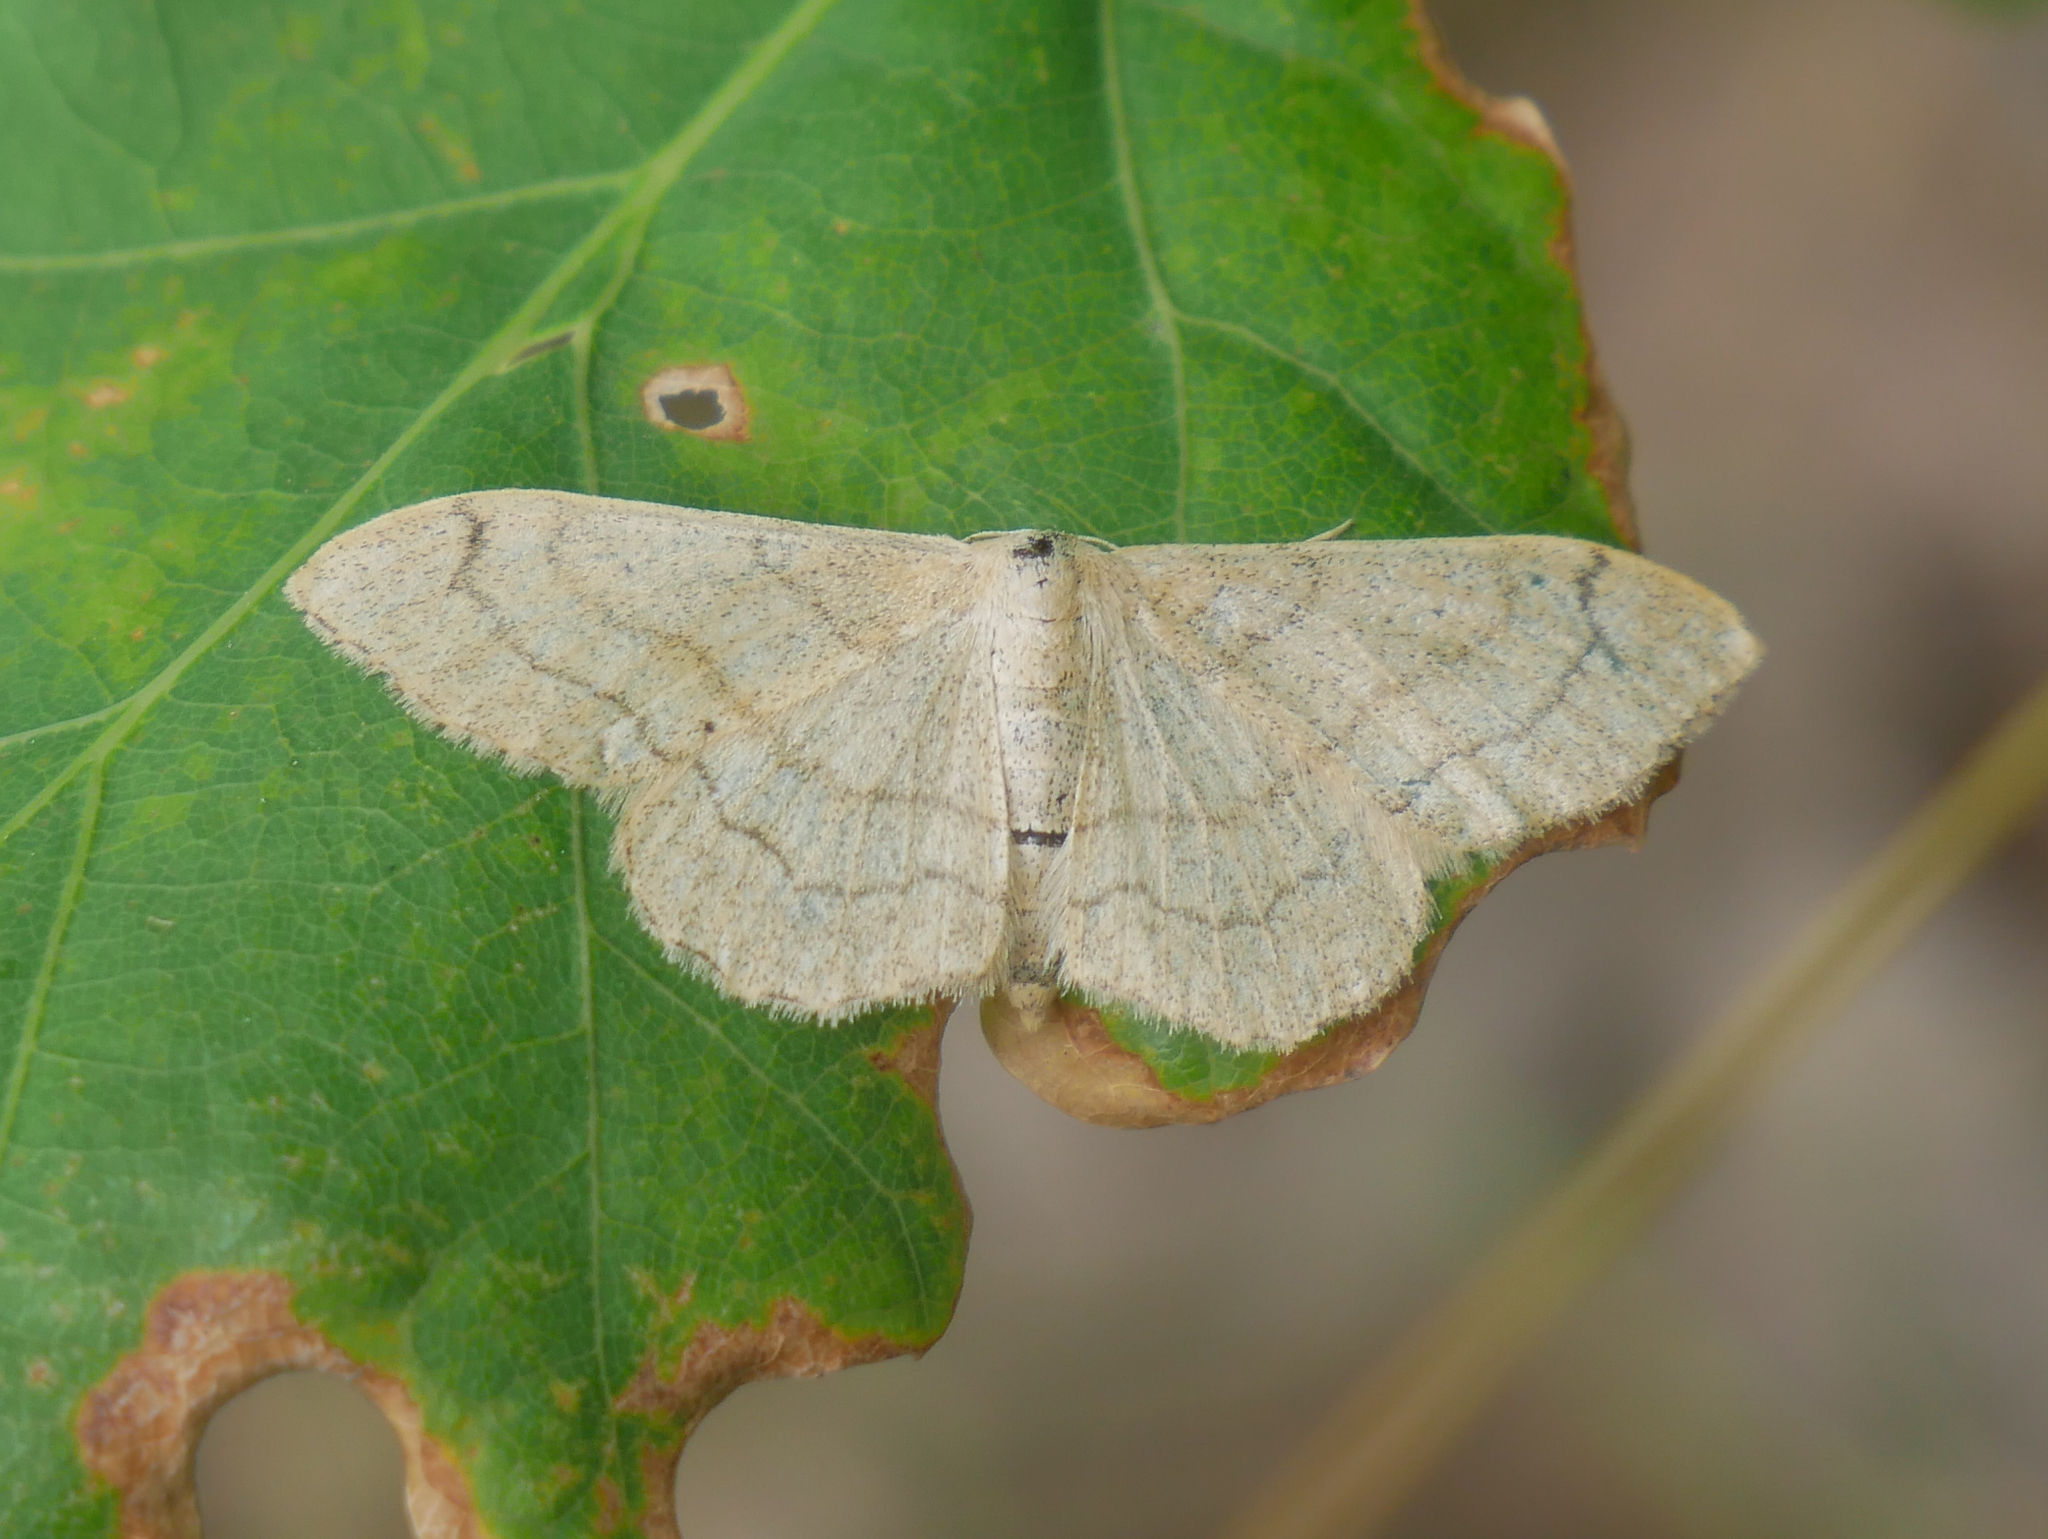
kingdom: Animalia
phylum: Arthropoda
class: Insecta
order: Lepidoptera
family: Geometridae
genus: Idaea
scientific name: Idaea aversata
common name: Riband wave
